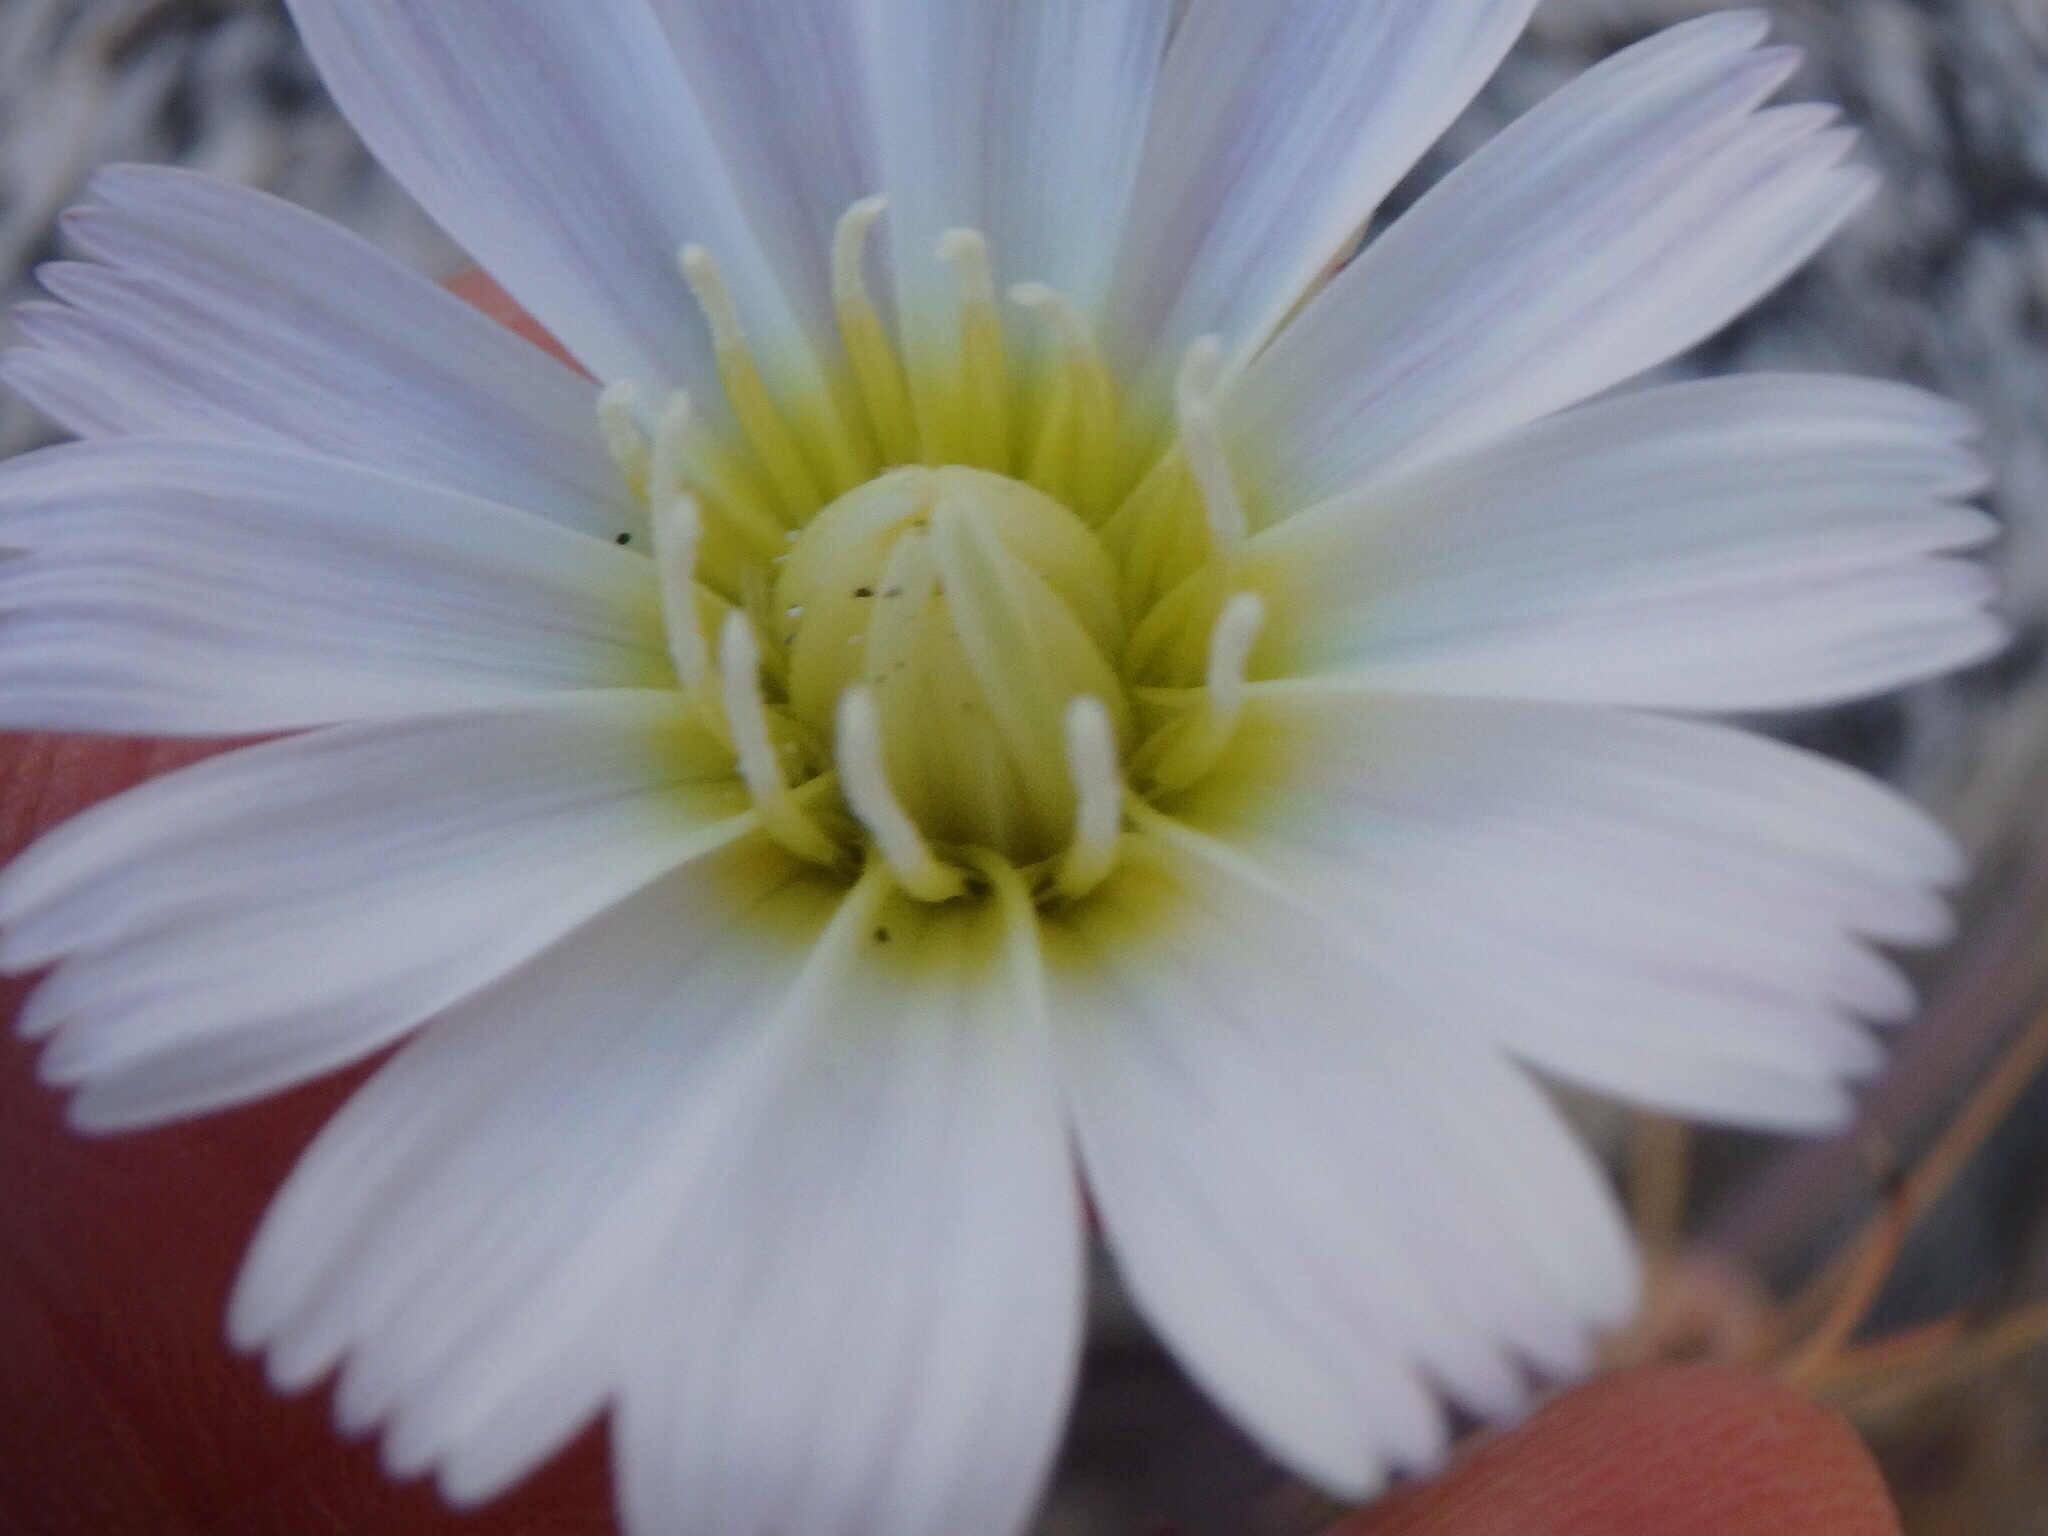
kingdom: Plantae
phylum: Tracheophyta
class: Magnoliopsida
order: Asterales
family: Asteraceae
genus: Calycoseris
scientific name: Calycoseris wrightii
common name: White tackstem
